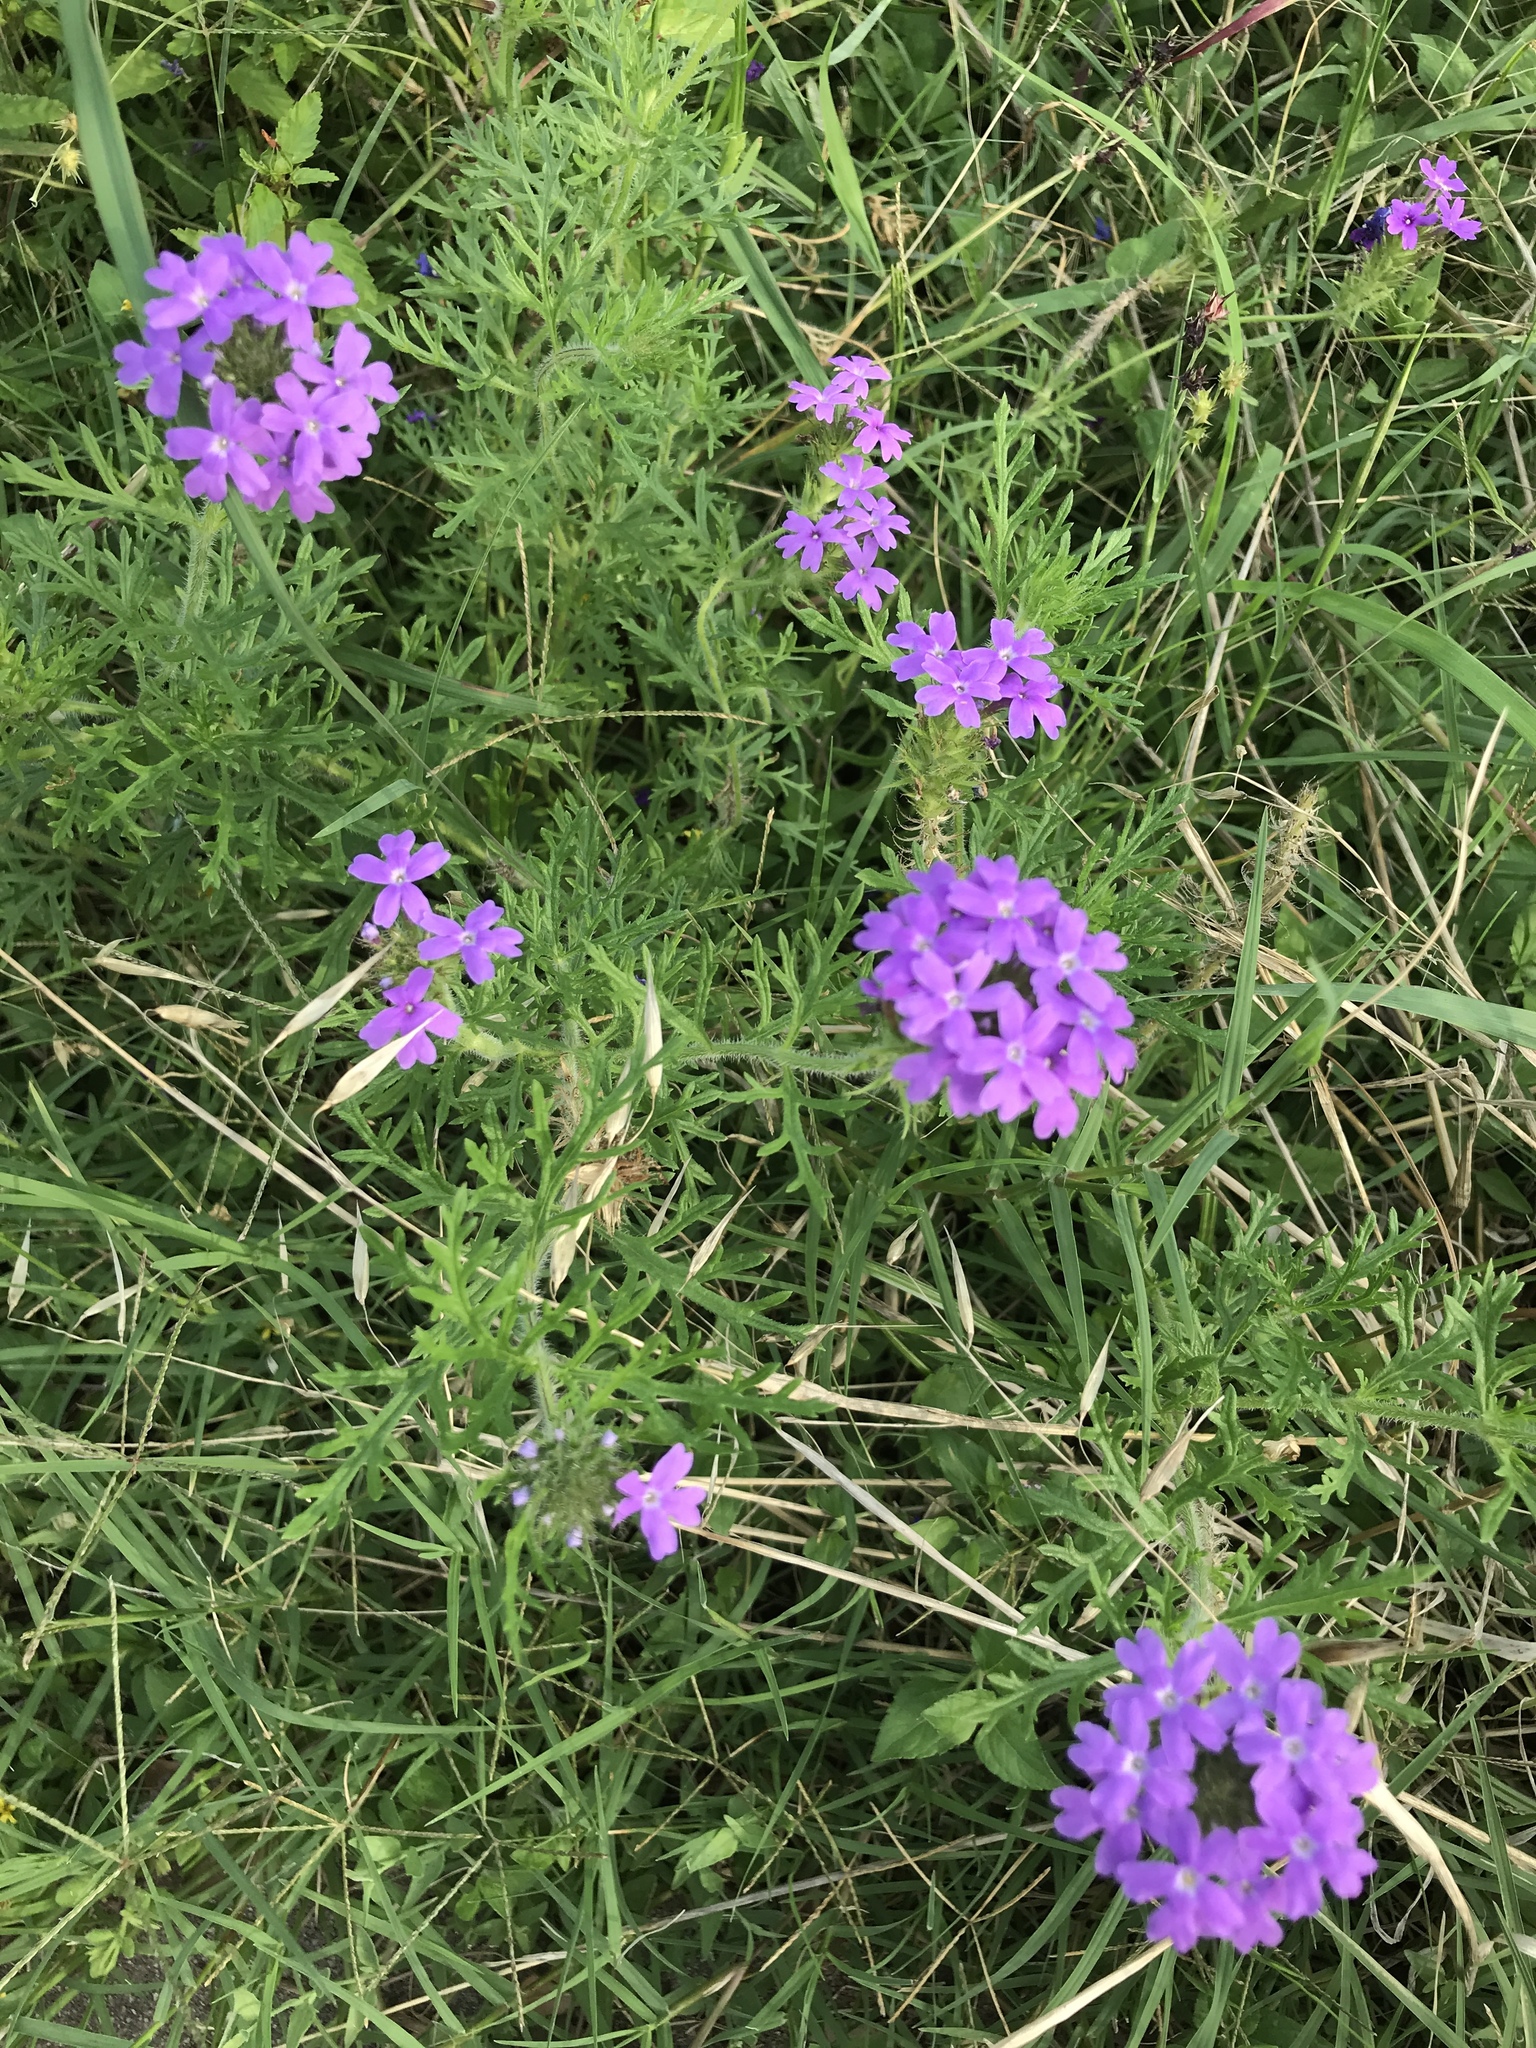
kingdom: Plantae
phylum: Tracheophyta
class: Magnoliopsida
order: Lamiales
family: Verbenaceae
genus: Verbena
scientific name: Verbena bipinnatifida
